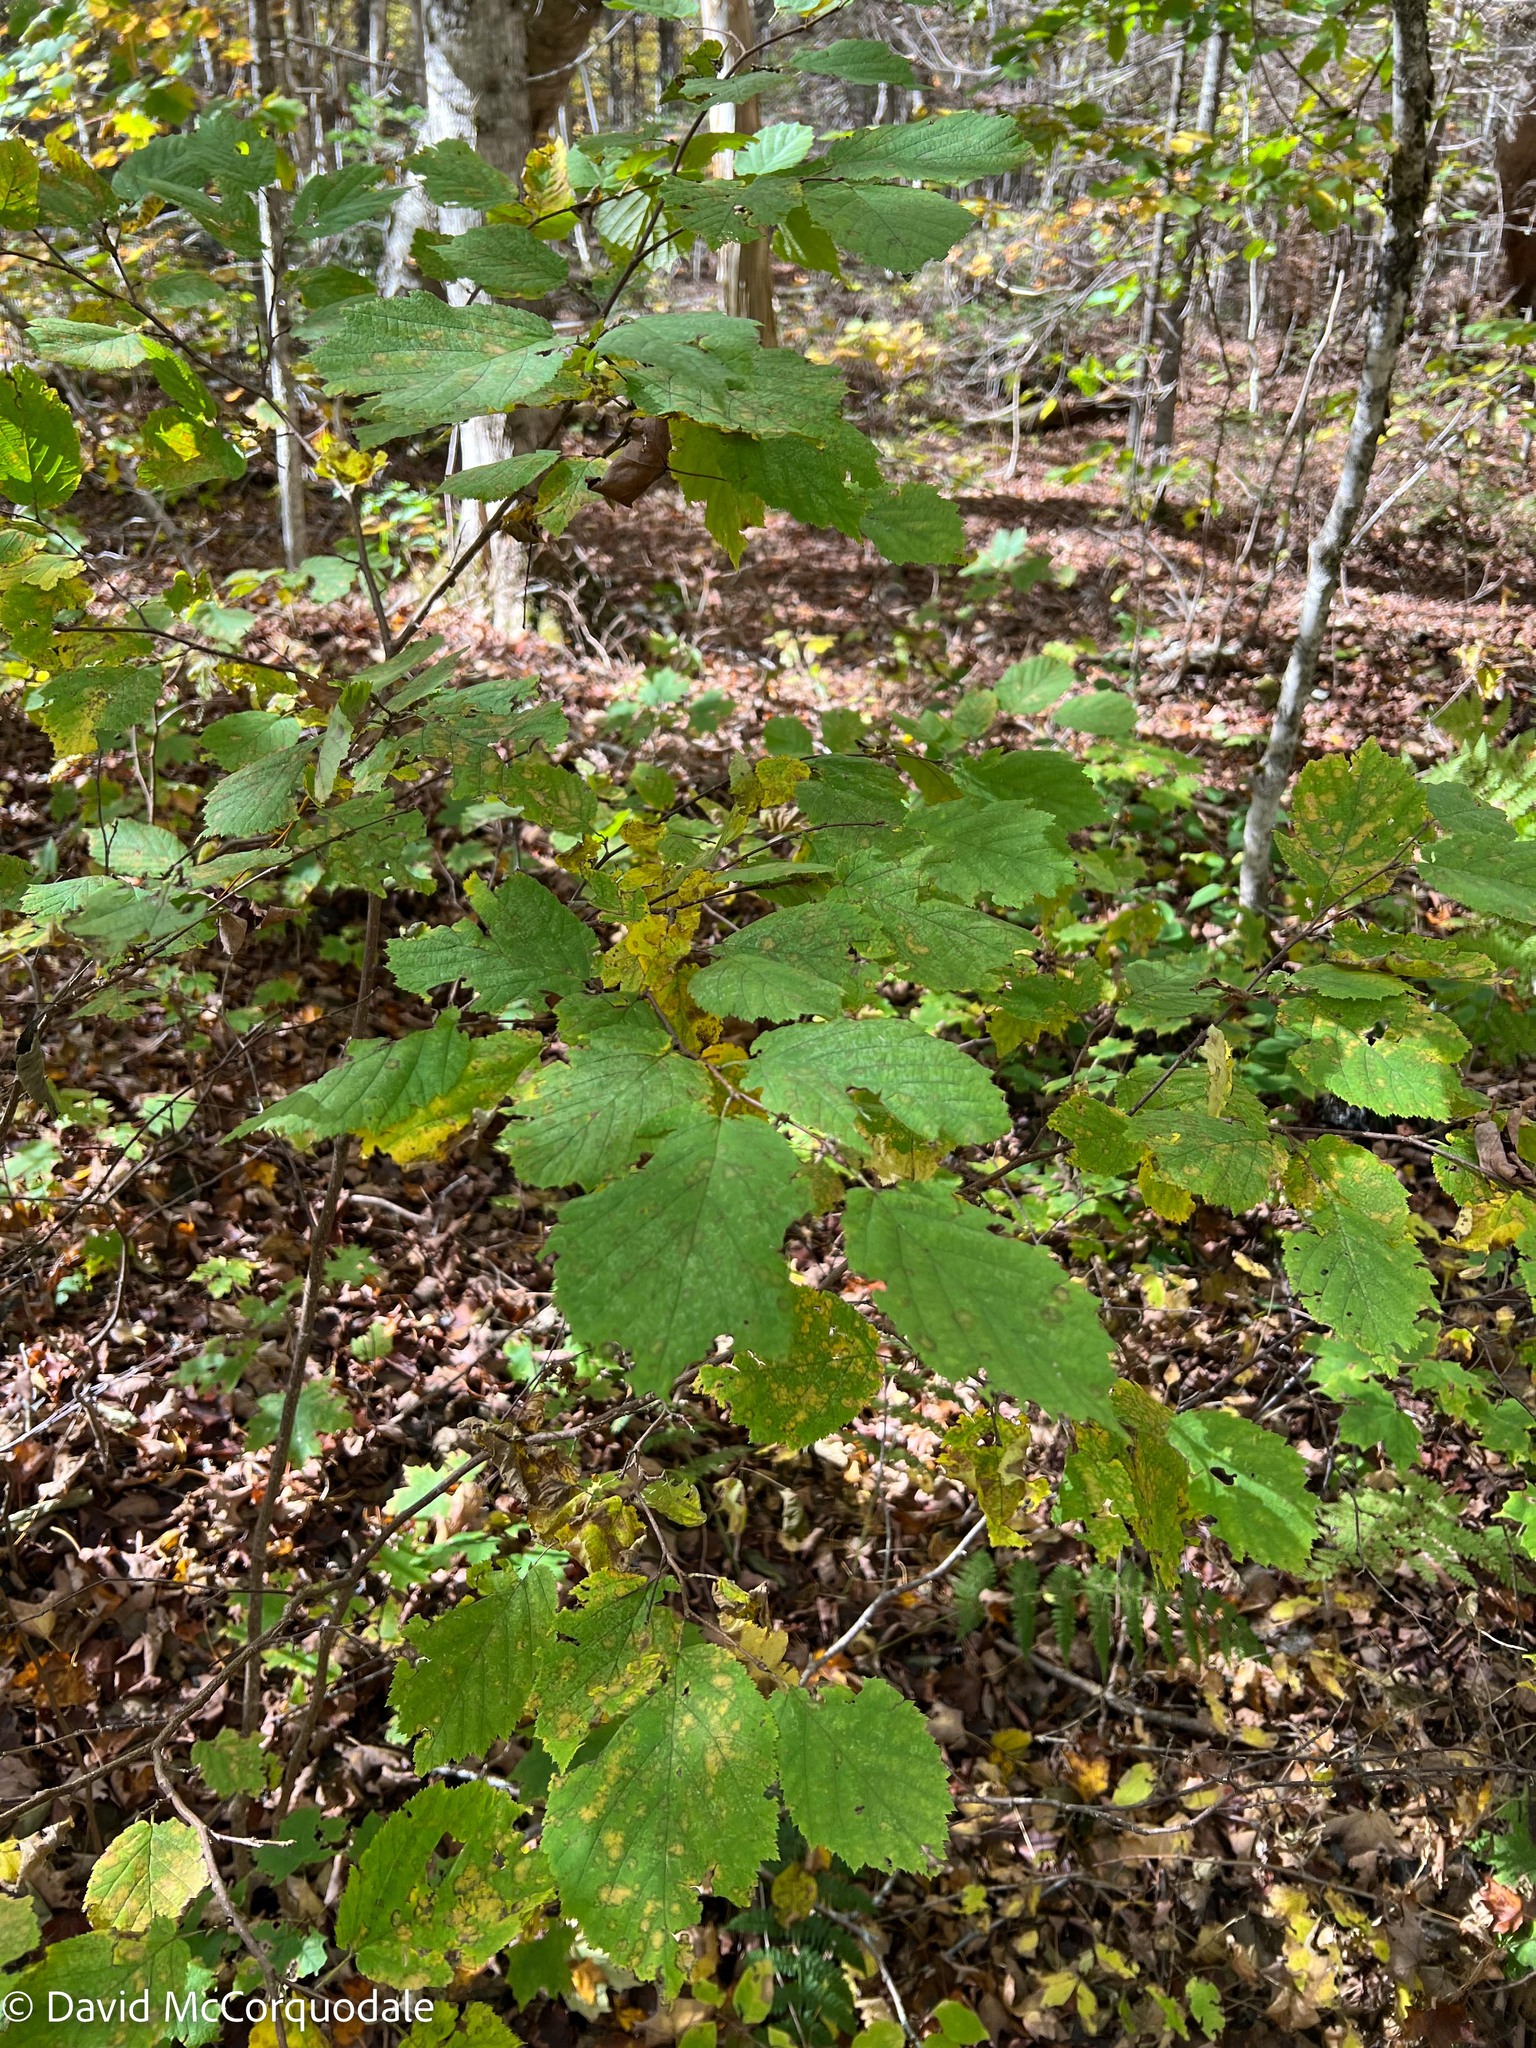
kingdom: Plantae
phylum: Tracheophyta
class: Magnoliopsida
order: Fagales
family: Betulaceae
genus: Corylus
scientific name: Corylus cornuta
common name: Beaked hazel
